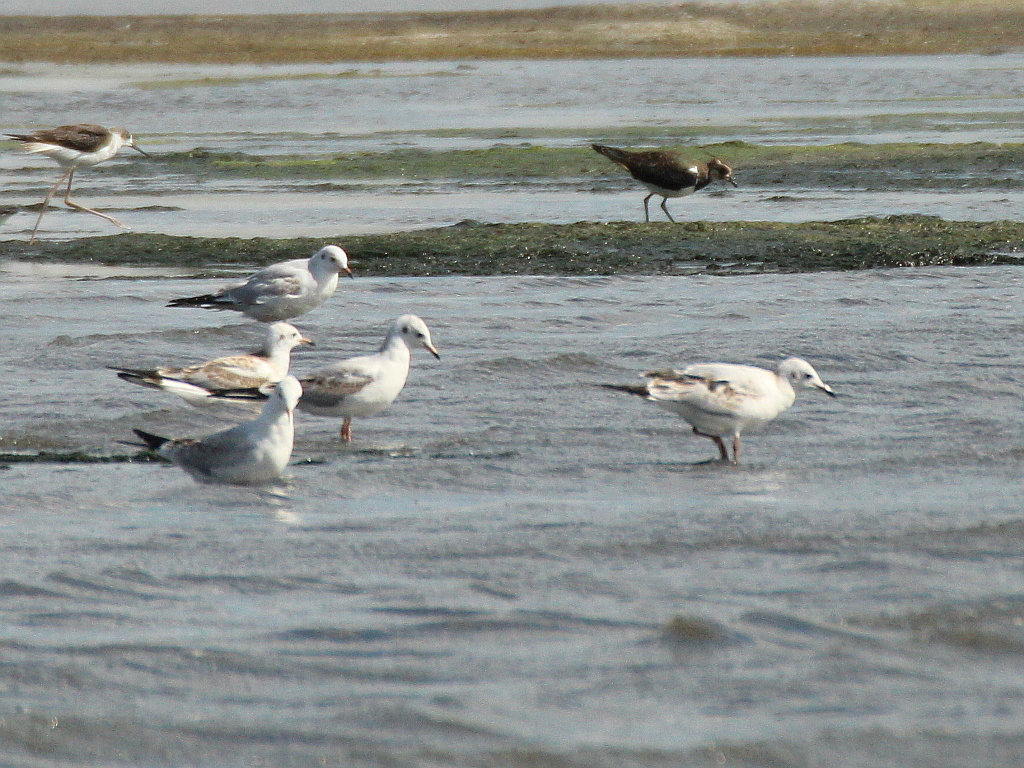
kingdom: Animalia
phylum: Chordata
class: Aves
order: Charadriiformes
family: Laridae
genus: Chroicocephalus
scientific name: Chroicocephalus ridibundus
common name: Black-headed gull
